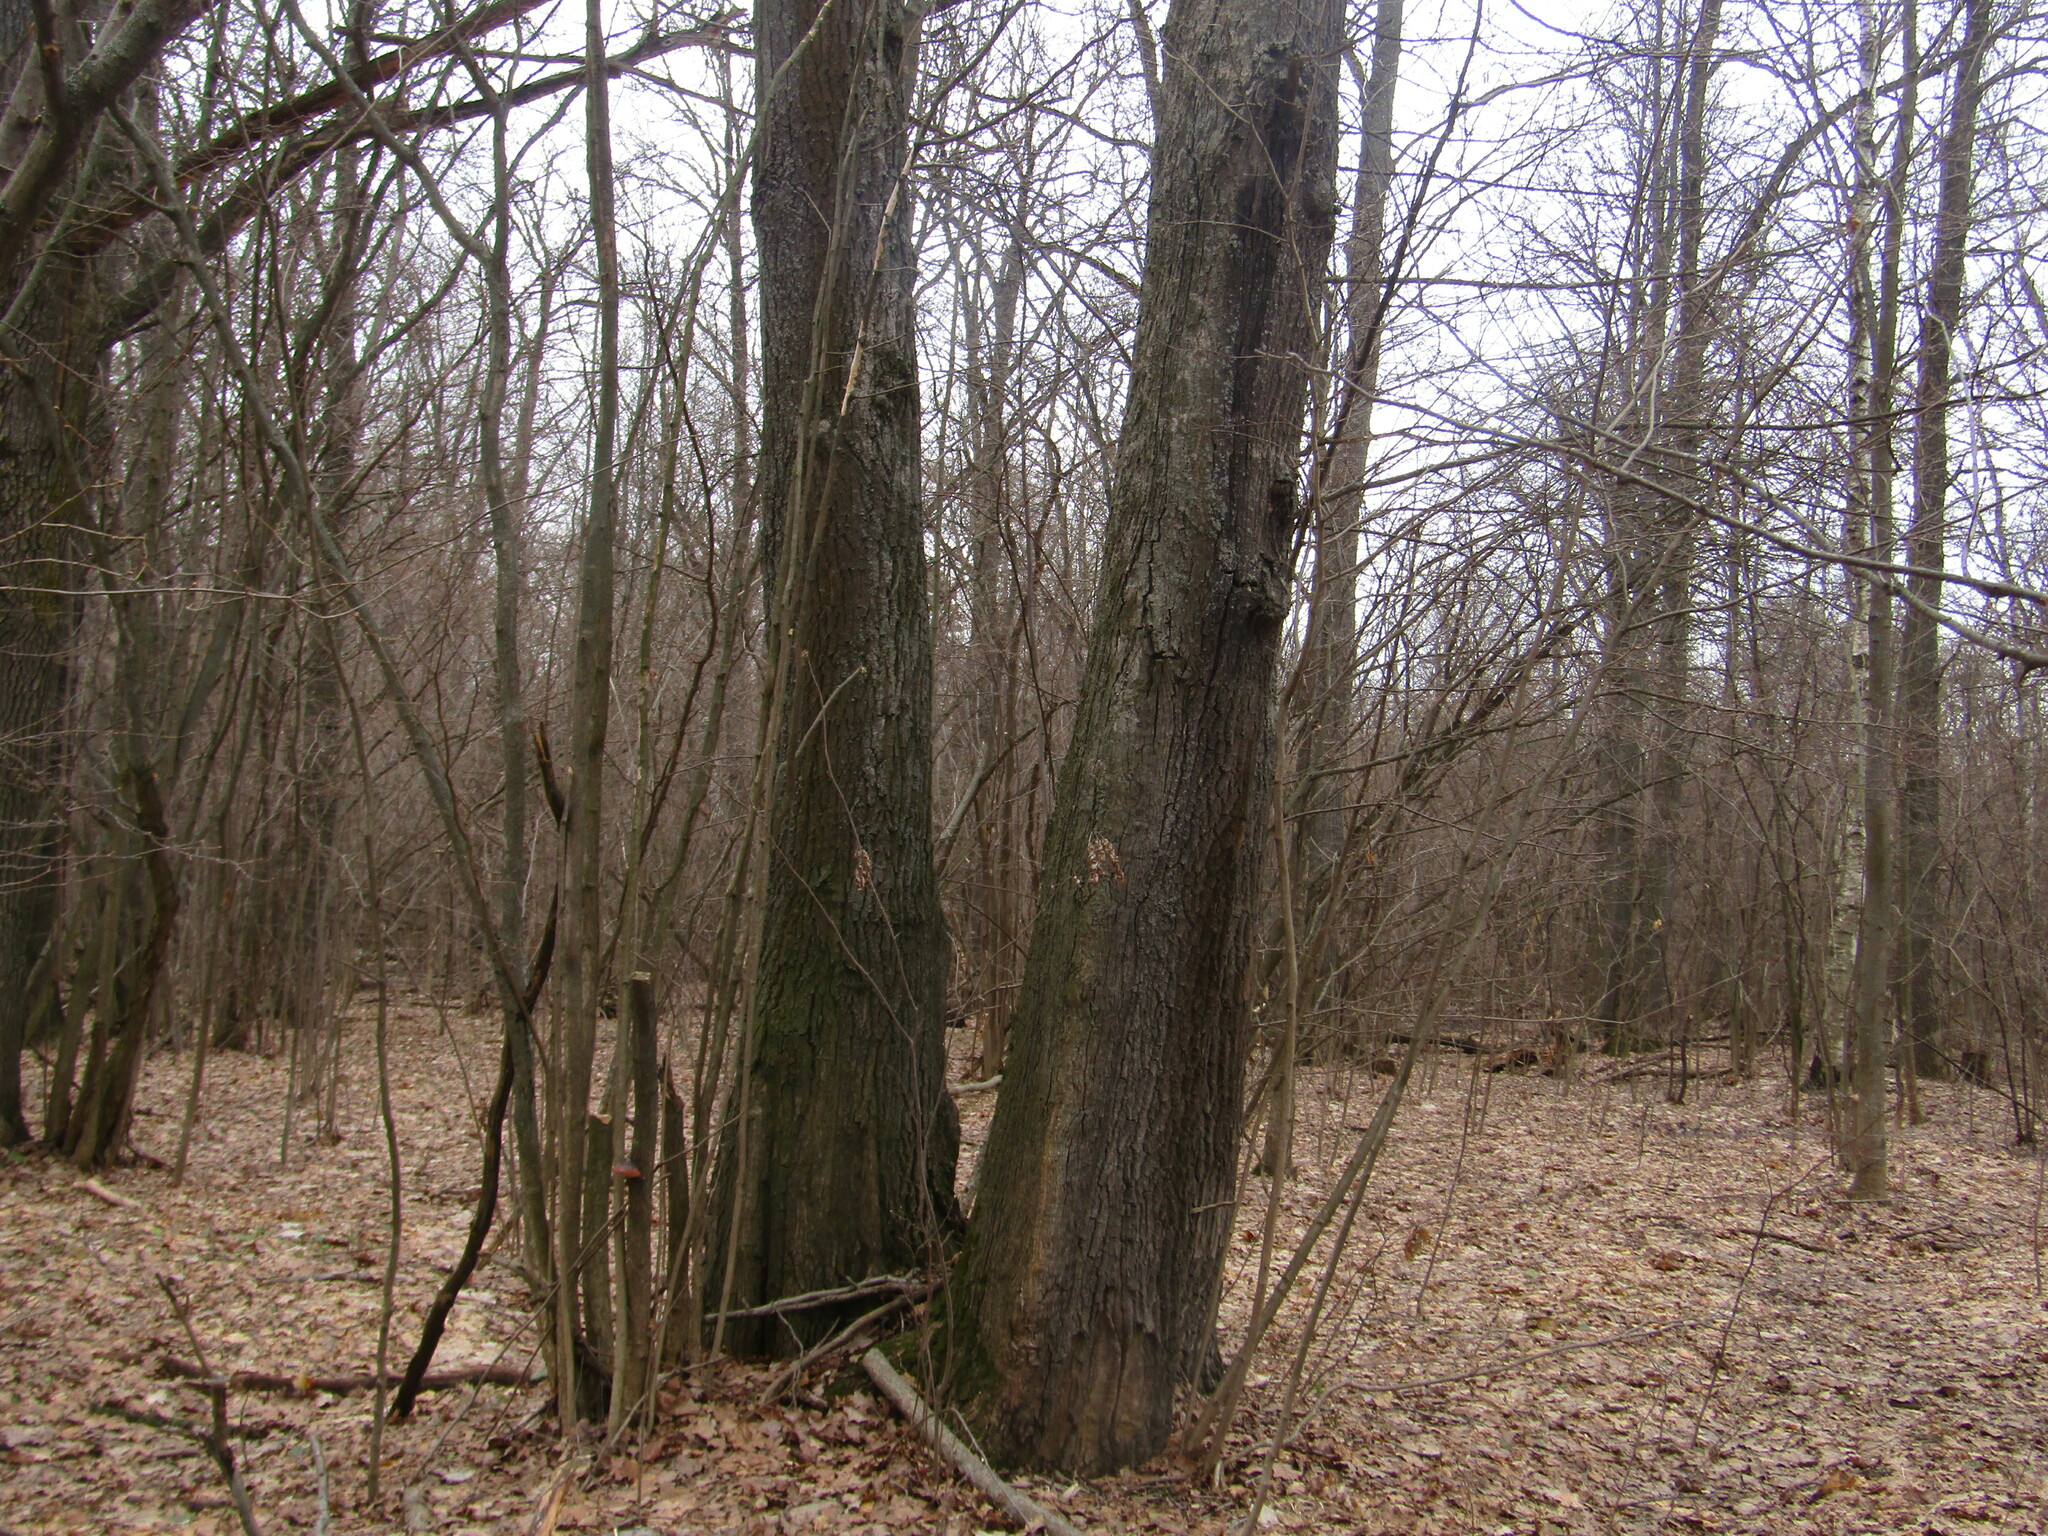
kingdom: Plantae
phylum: Tracheophyta
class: Magnoliopsida
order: Fagales
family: Fagaceae
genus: Quercus
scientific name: Quercus robur
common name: Pedunculate oak
